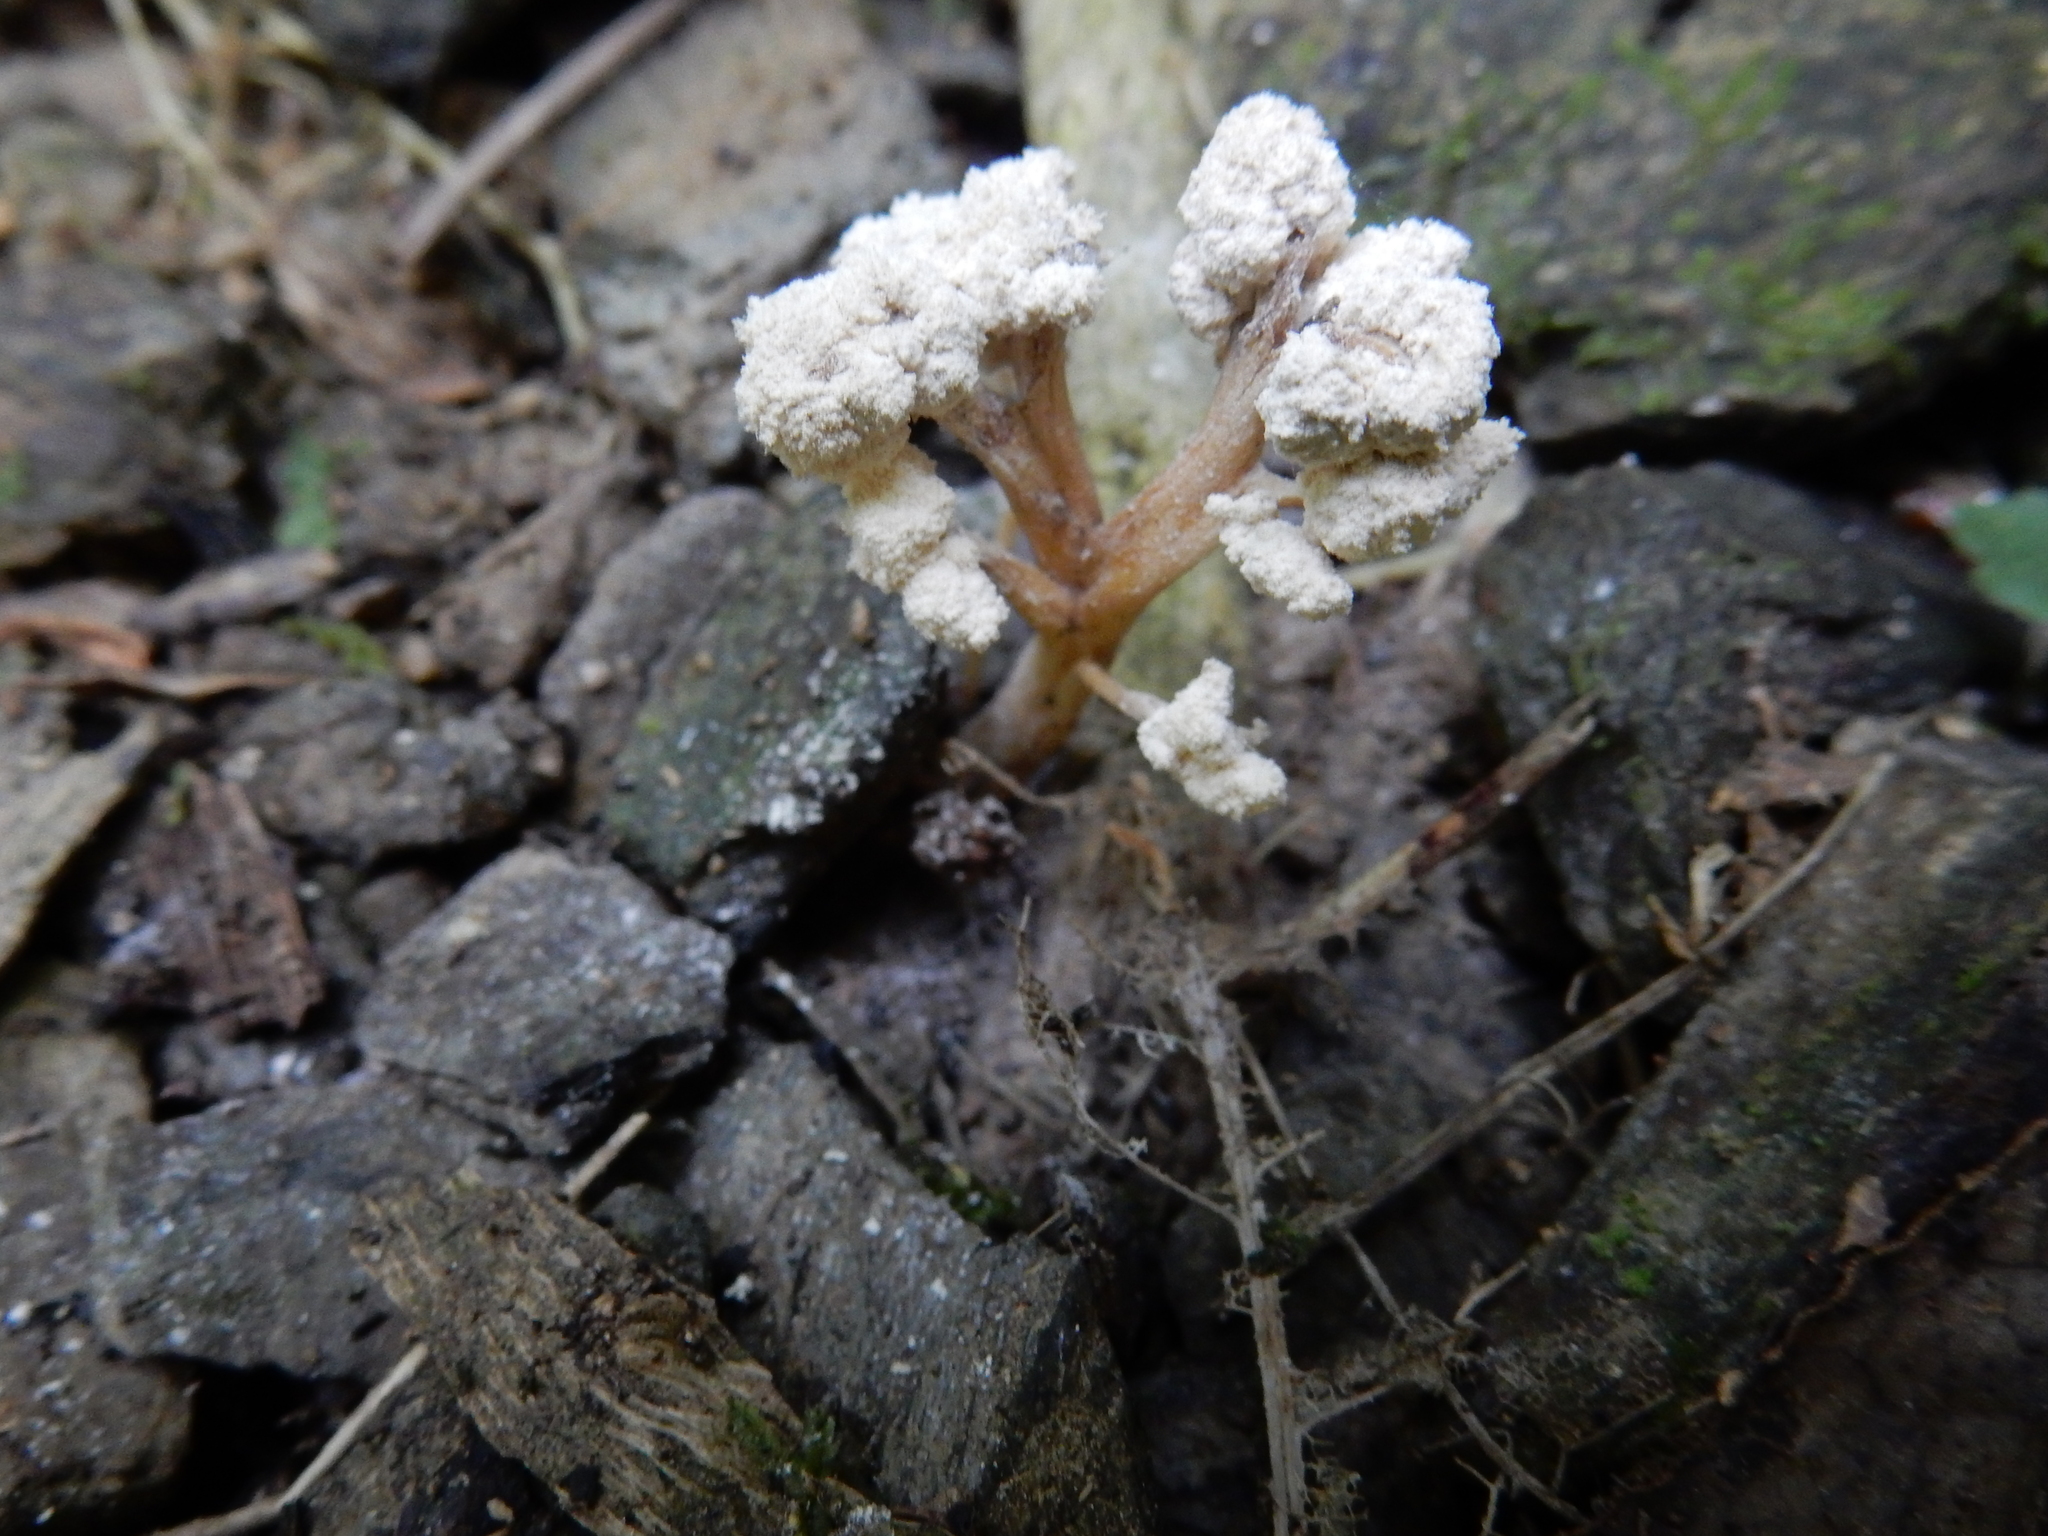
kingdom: Fungi
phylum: Ascomycota
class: Sordariomycetes
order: Hypocreales
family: Cordycipitaceae
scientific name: Cordycipitaceae
